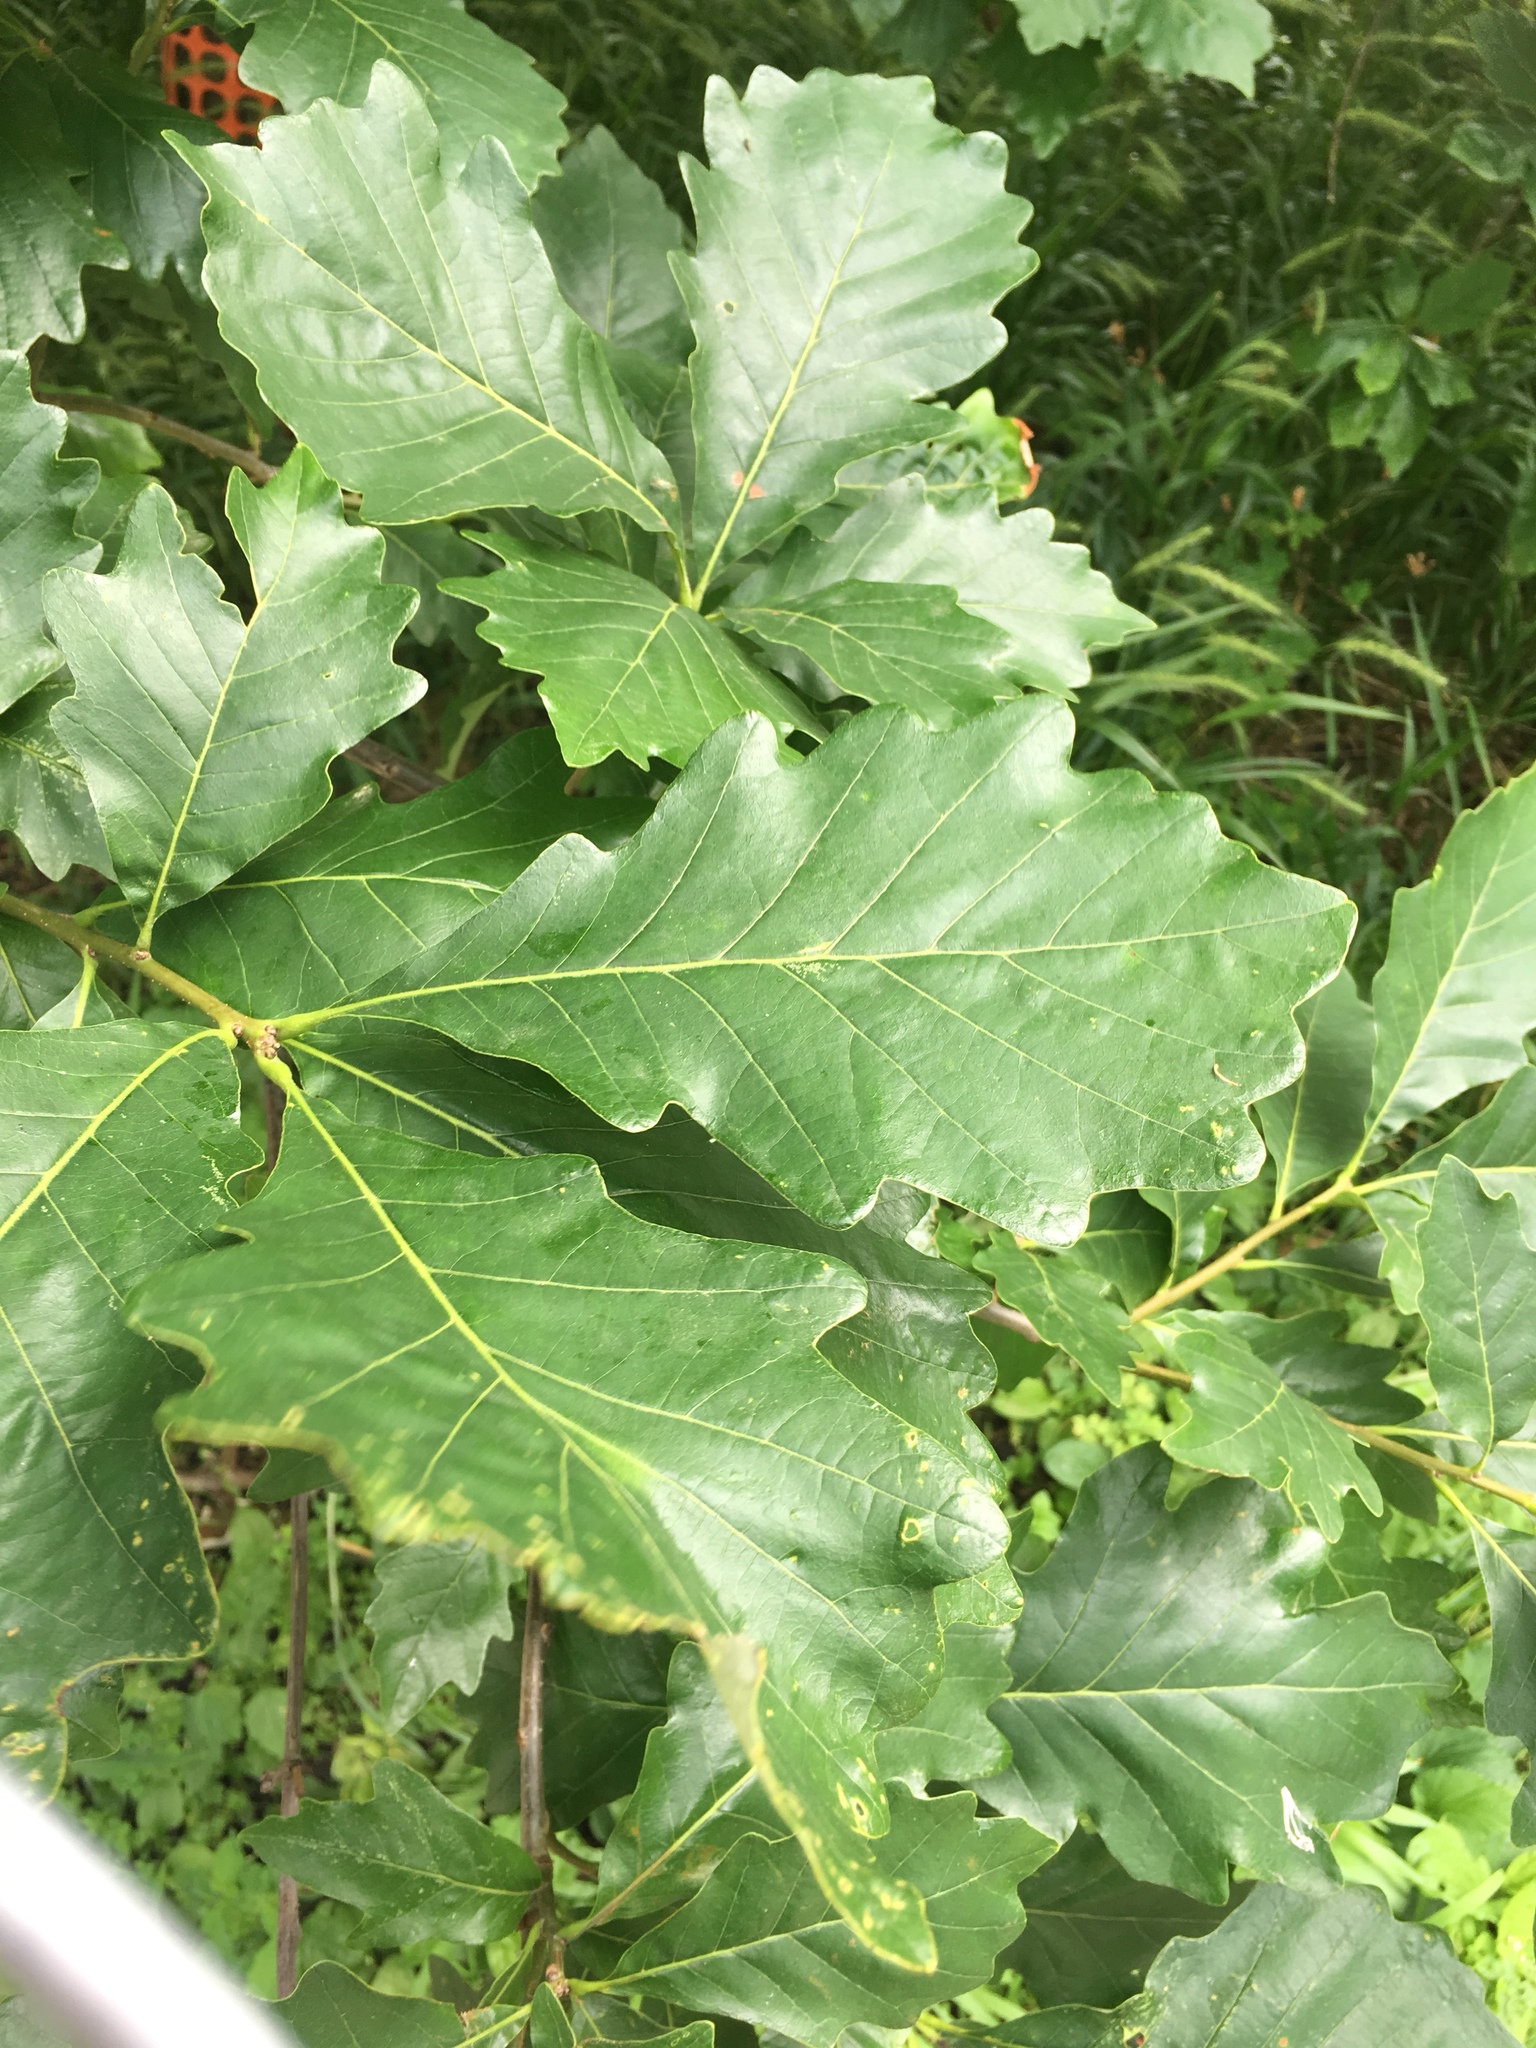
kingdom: Plantae
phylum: Tracheophyta
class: Magnoliopsida
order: Fagales
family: Fagaceae
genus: Quercus
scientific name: Quercus bicolor
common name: Swamp white oak
